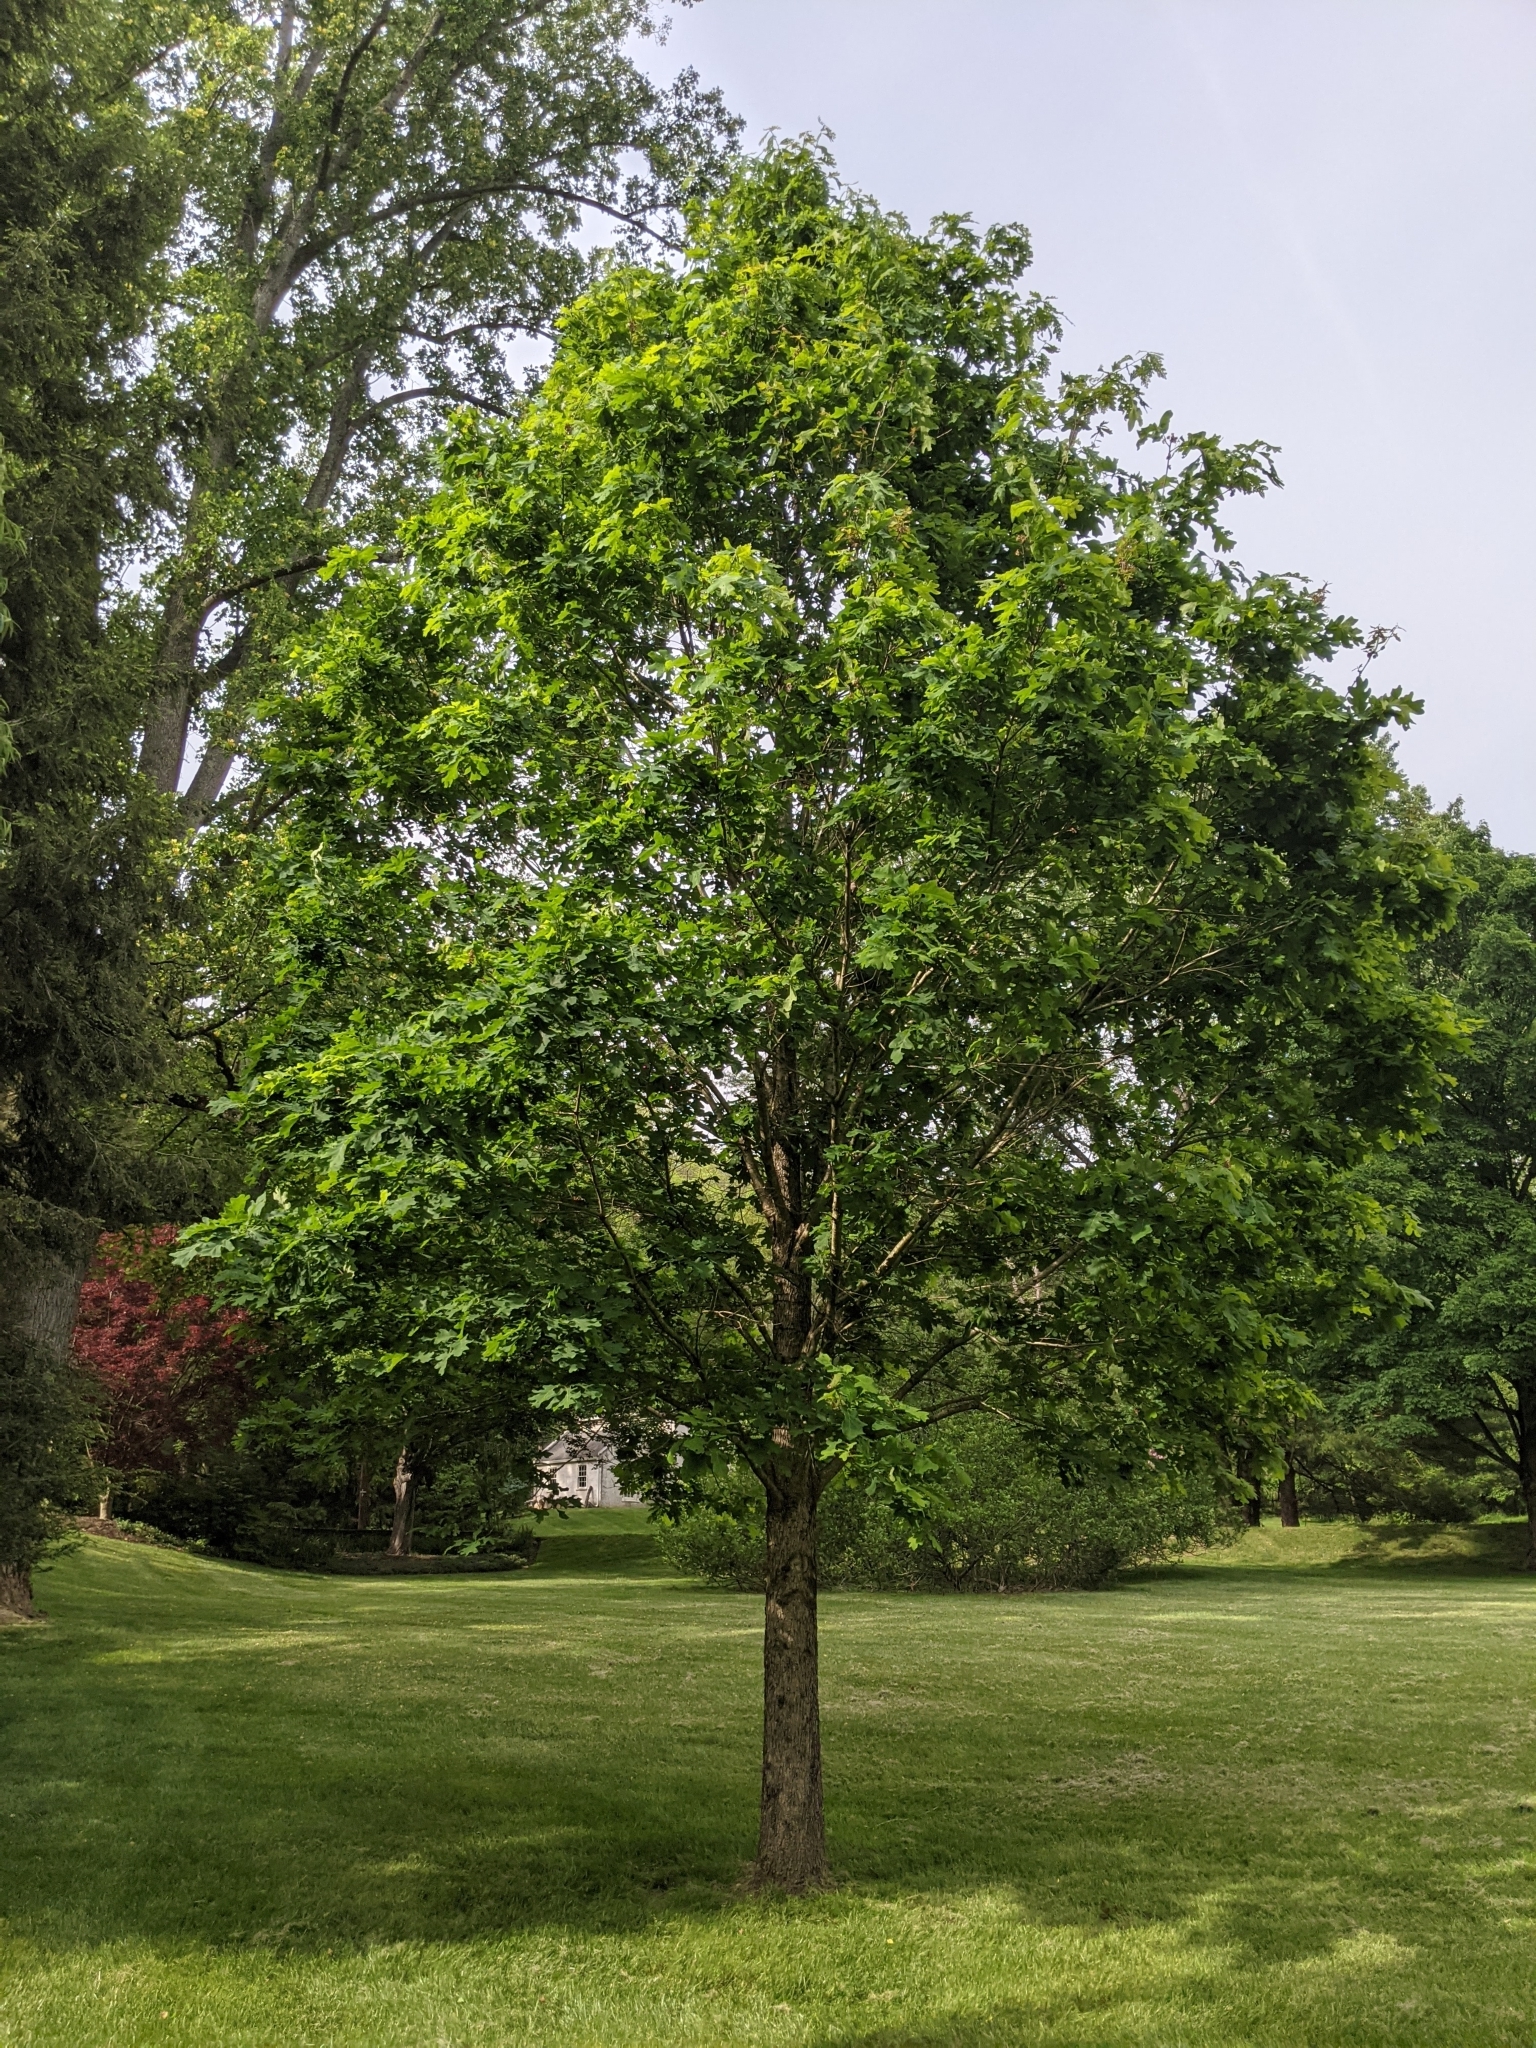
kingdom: Plantae
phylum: Tracheophyta
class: Magnoliopsida
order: Fagales
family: Fagaceae
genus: Quercus
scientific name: Quercus alba
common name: White oak
